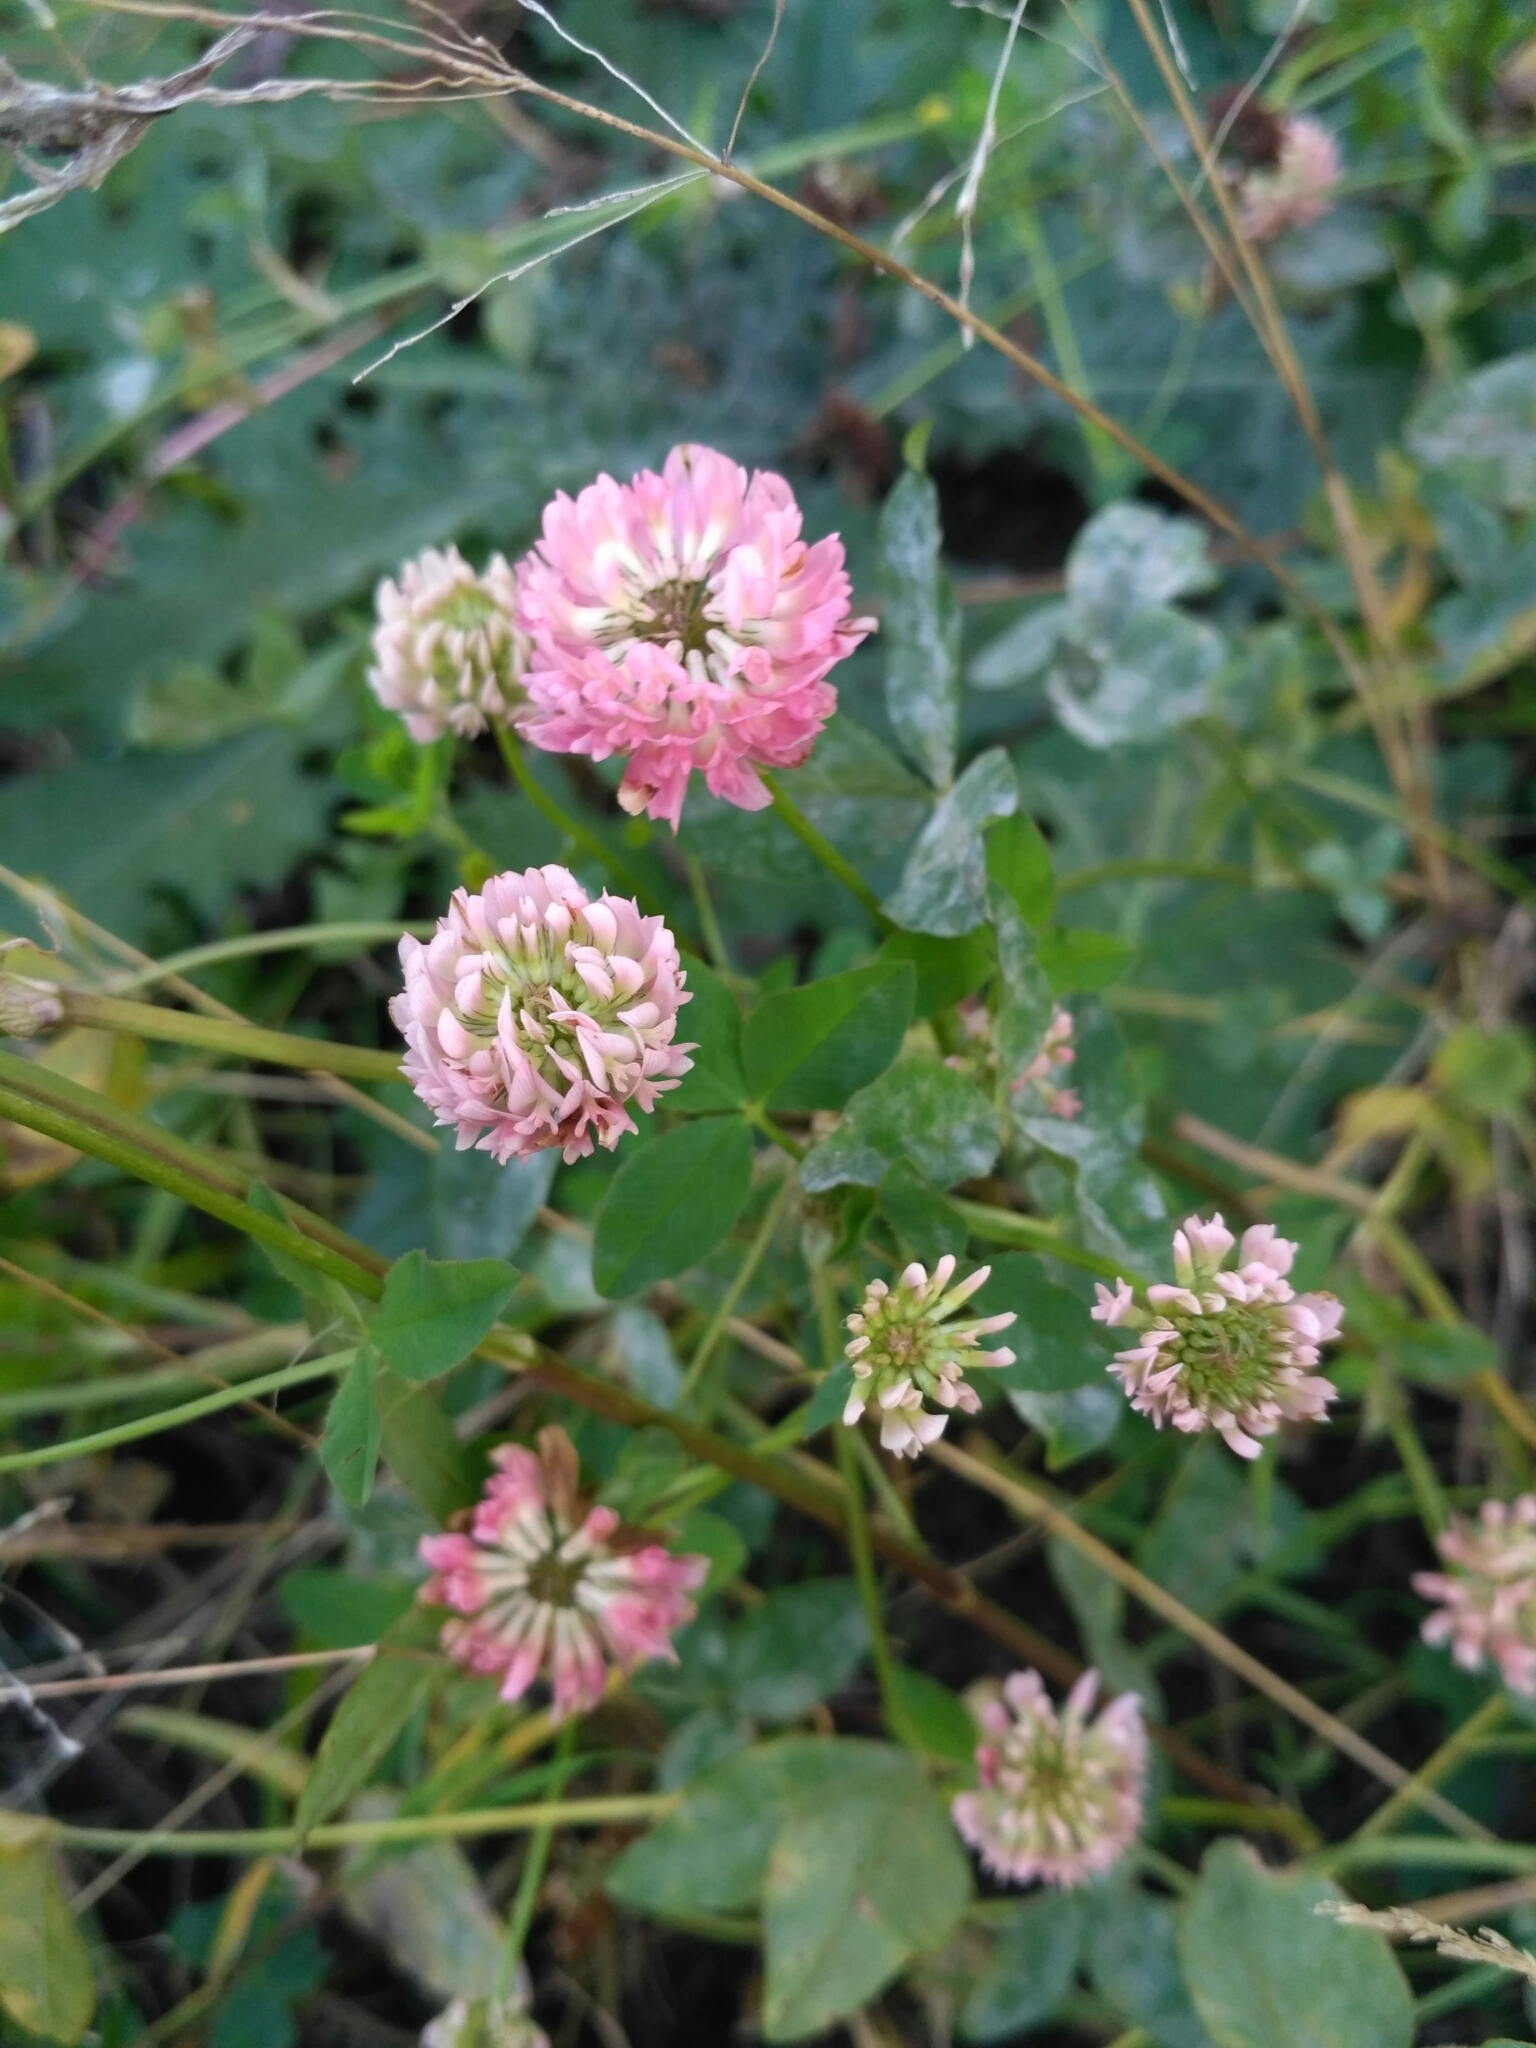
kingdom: Plantae
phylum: Tracheophyta
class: Magnoliopsida
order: Fabales
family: Fabaceae
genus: Trifolium
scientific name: Trifolium hybridum
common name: Alsike clover
